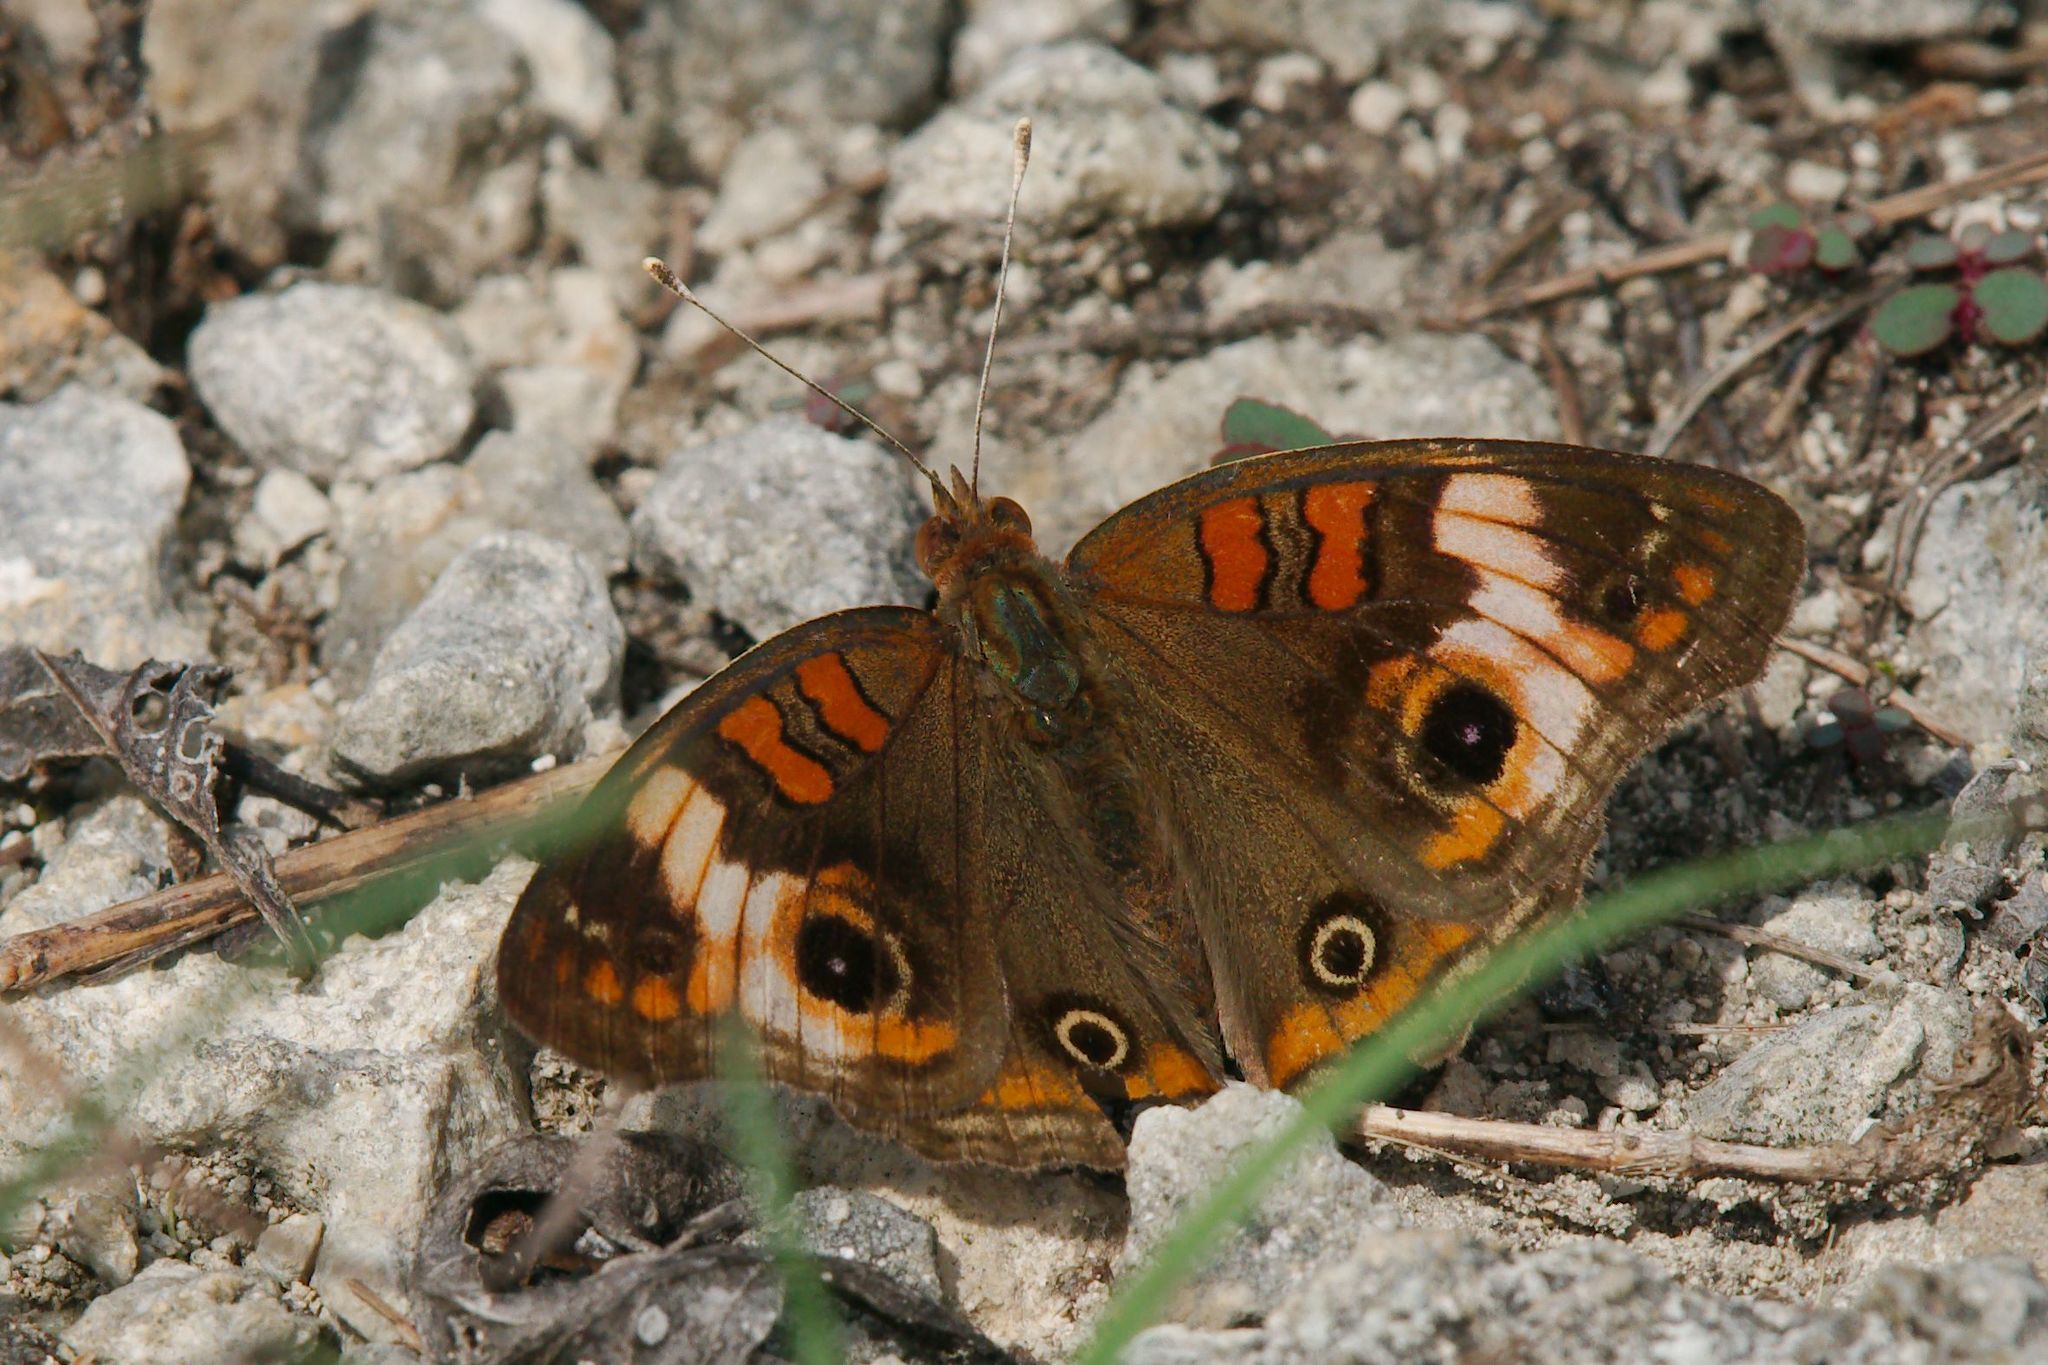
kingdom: Animalia
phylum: Arthropoda
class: Insecta
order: Lepidoptera
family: Nymphalidae
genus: Junonia
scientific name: Junonia lavinia
